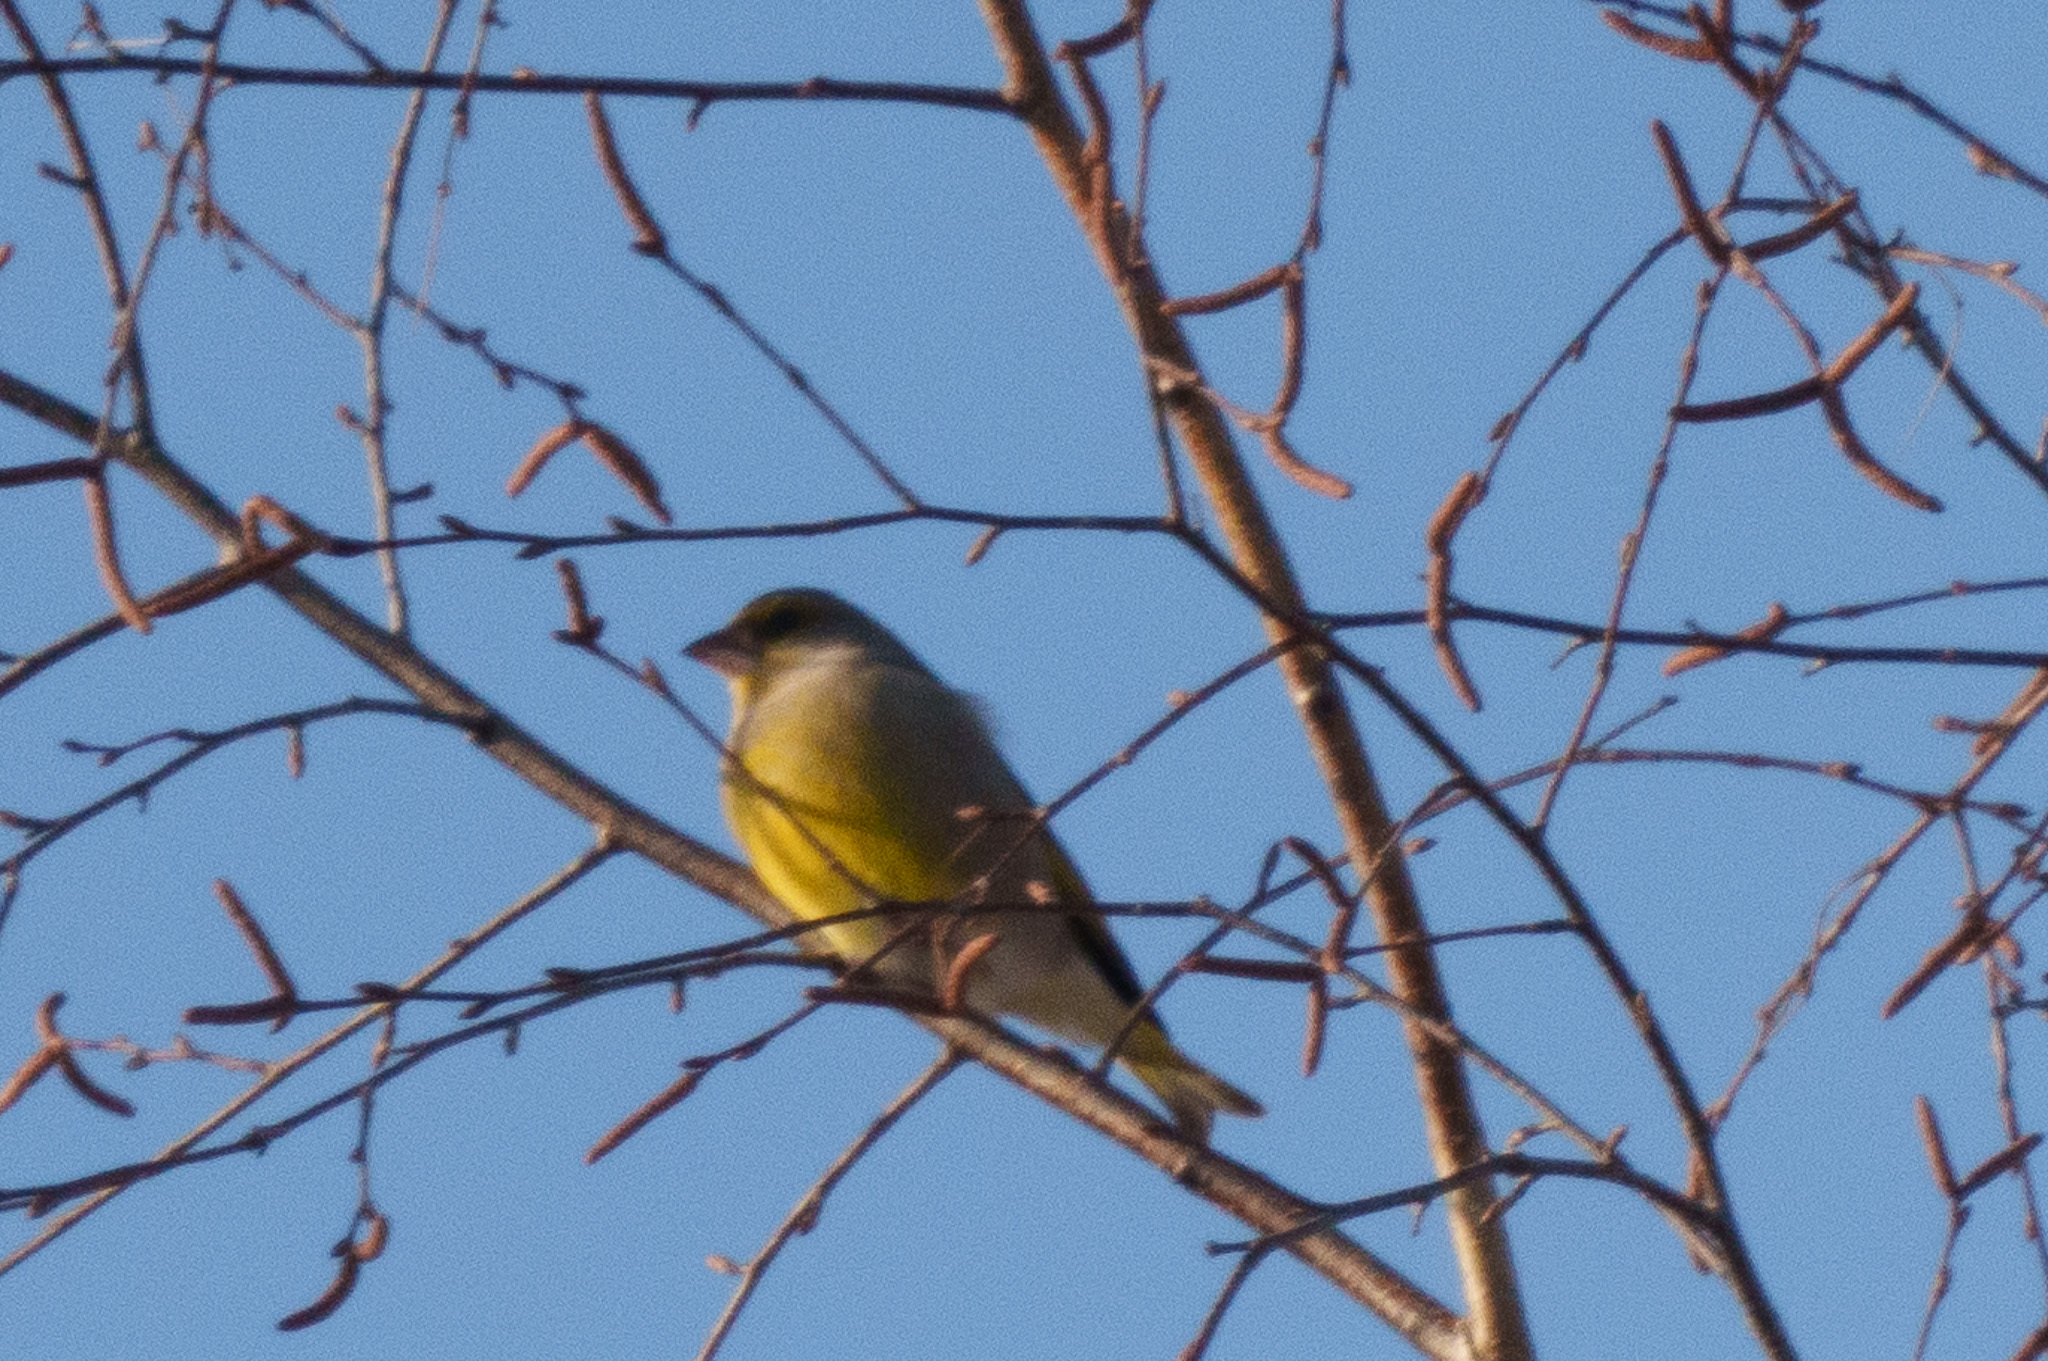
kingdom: Plantae
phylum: Tracheophyta
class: Liliopsida
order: Poales
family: Poaceae
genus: Chloris
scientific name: Chloris chloris
